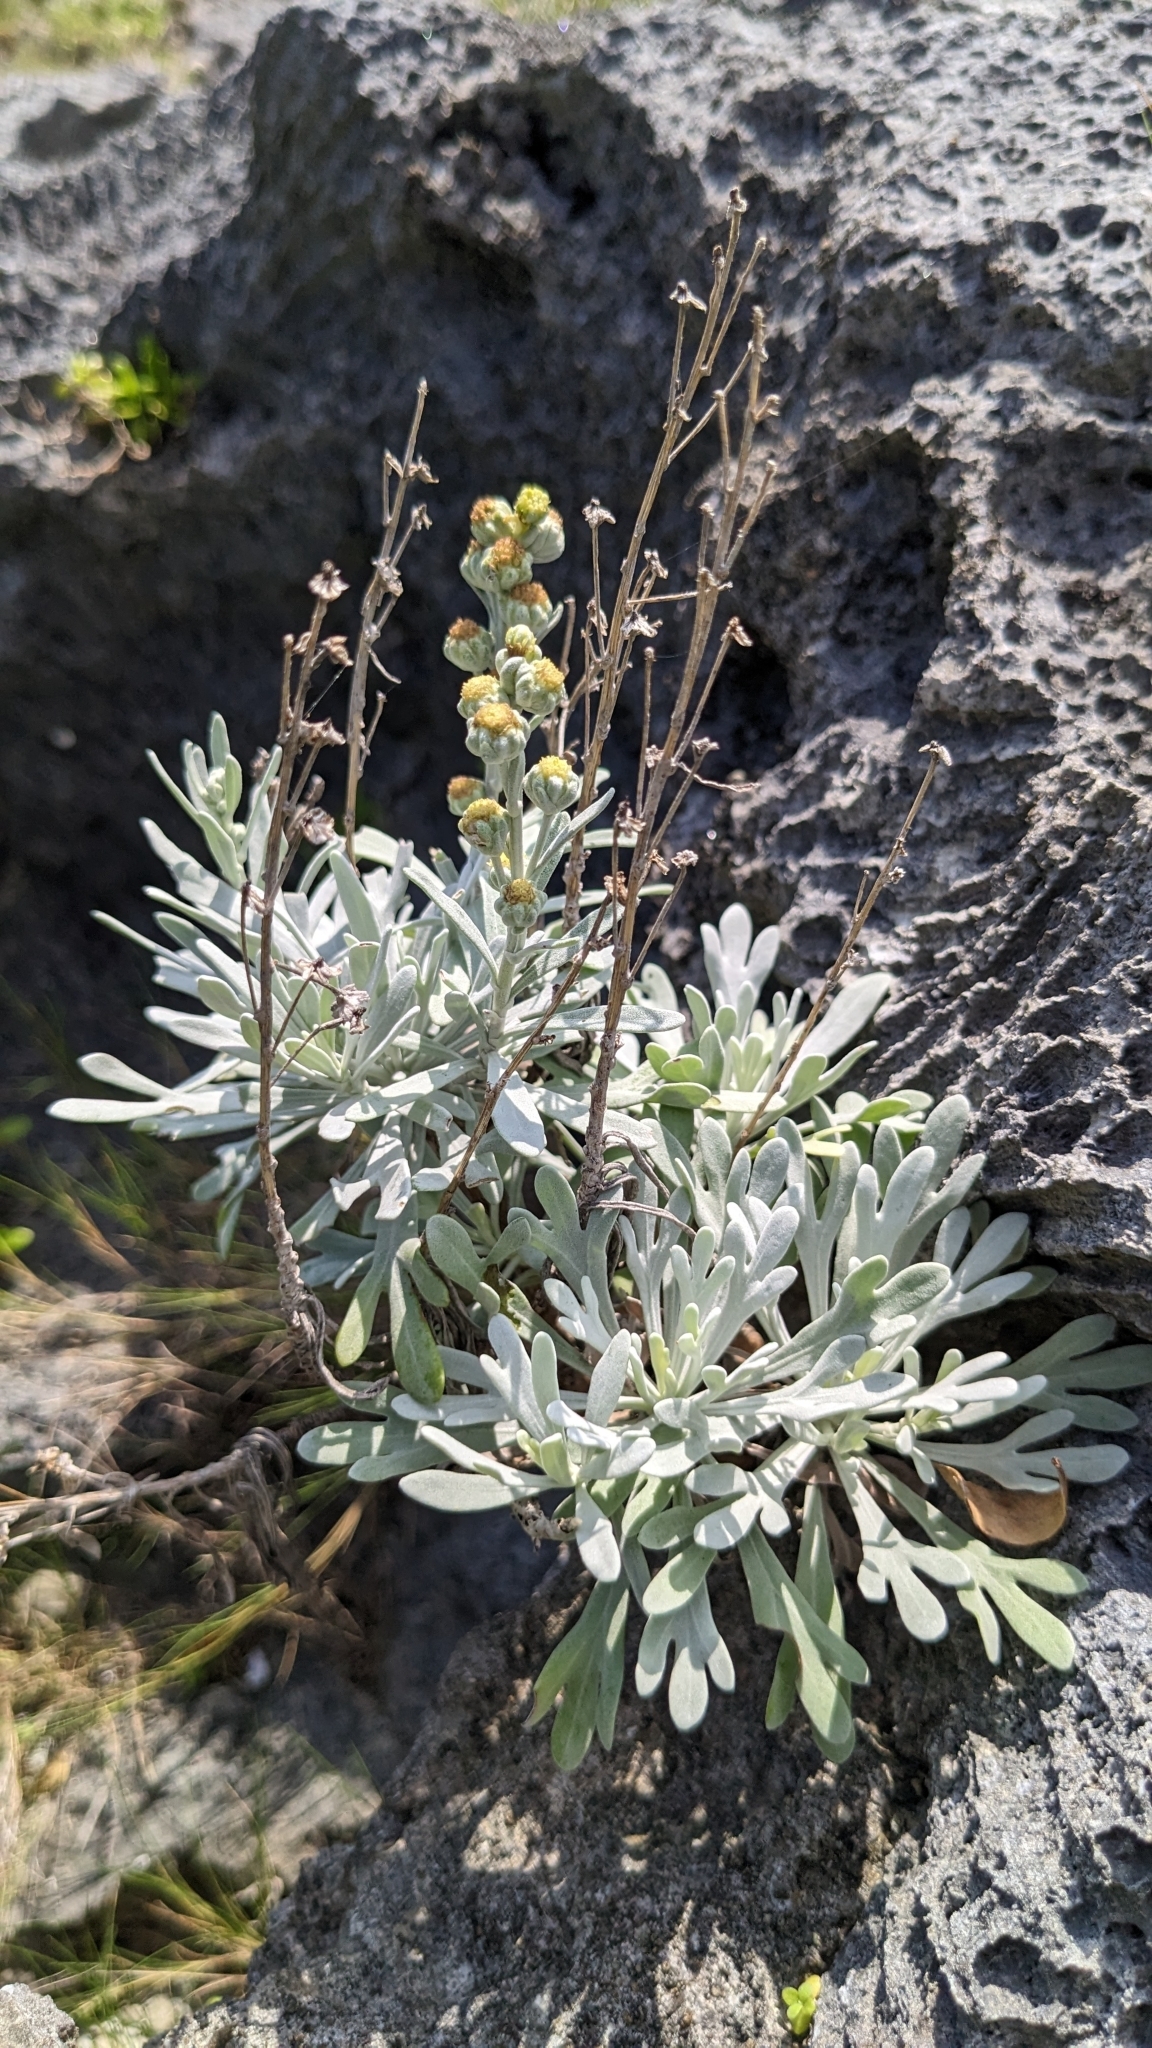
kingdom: Plantae
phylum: Tracheophyta
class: Magnoliopsida
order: Asterales
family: Asteraceae
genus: Crossostephium
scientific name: Crossostephium chinense
